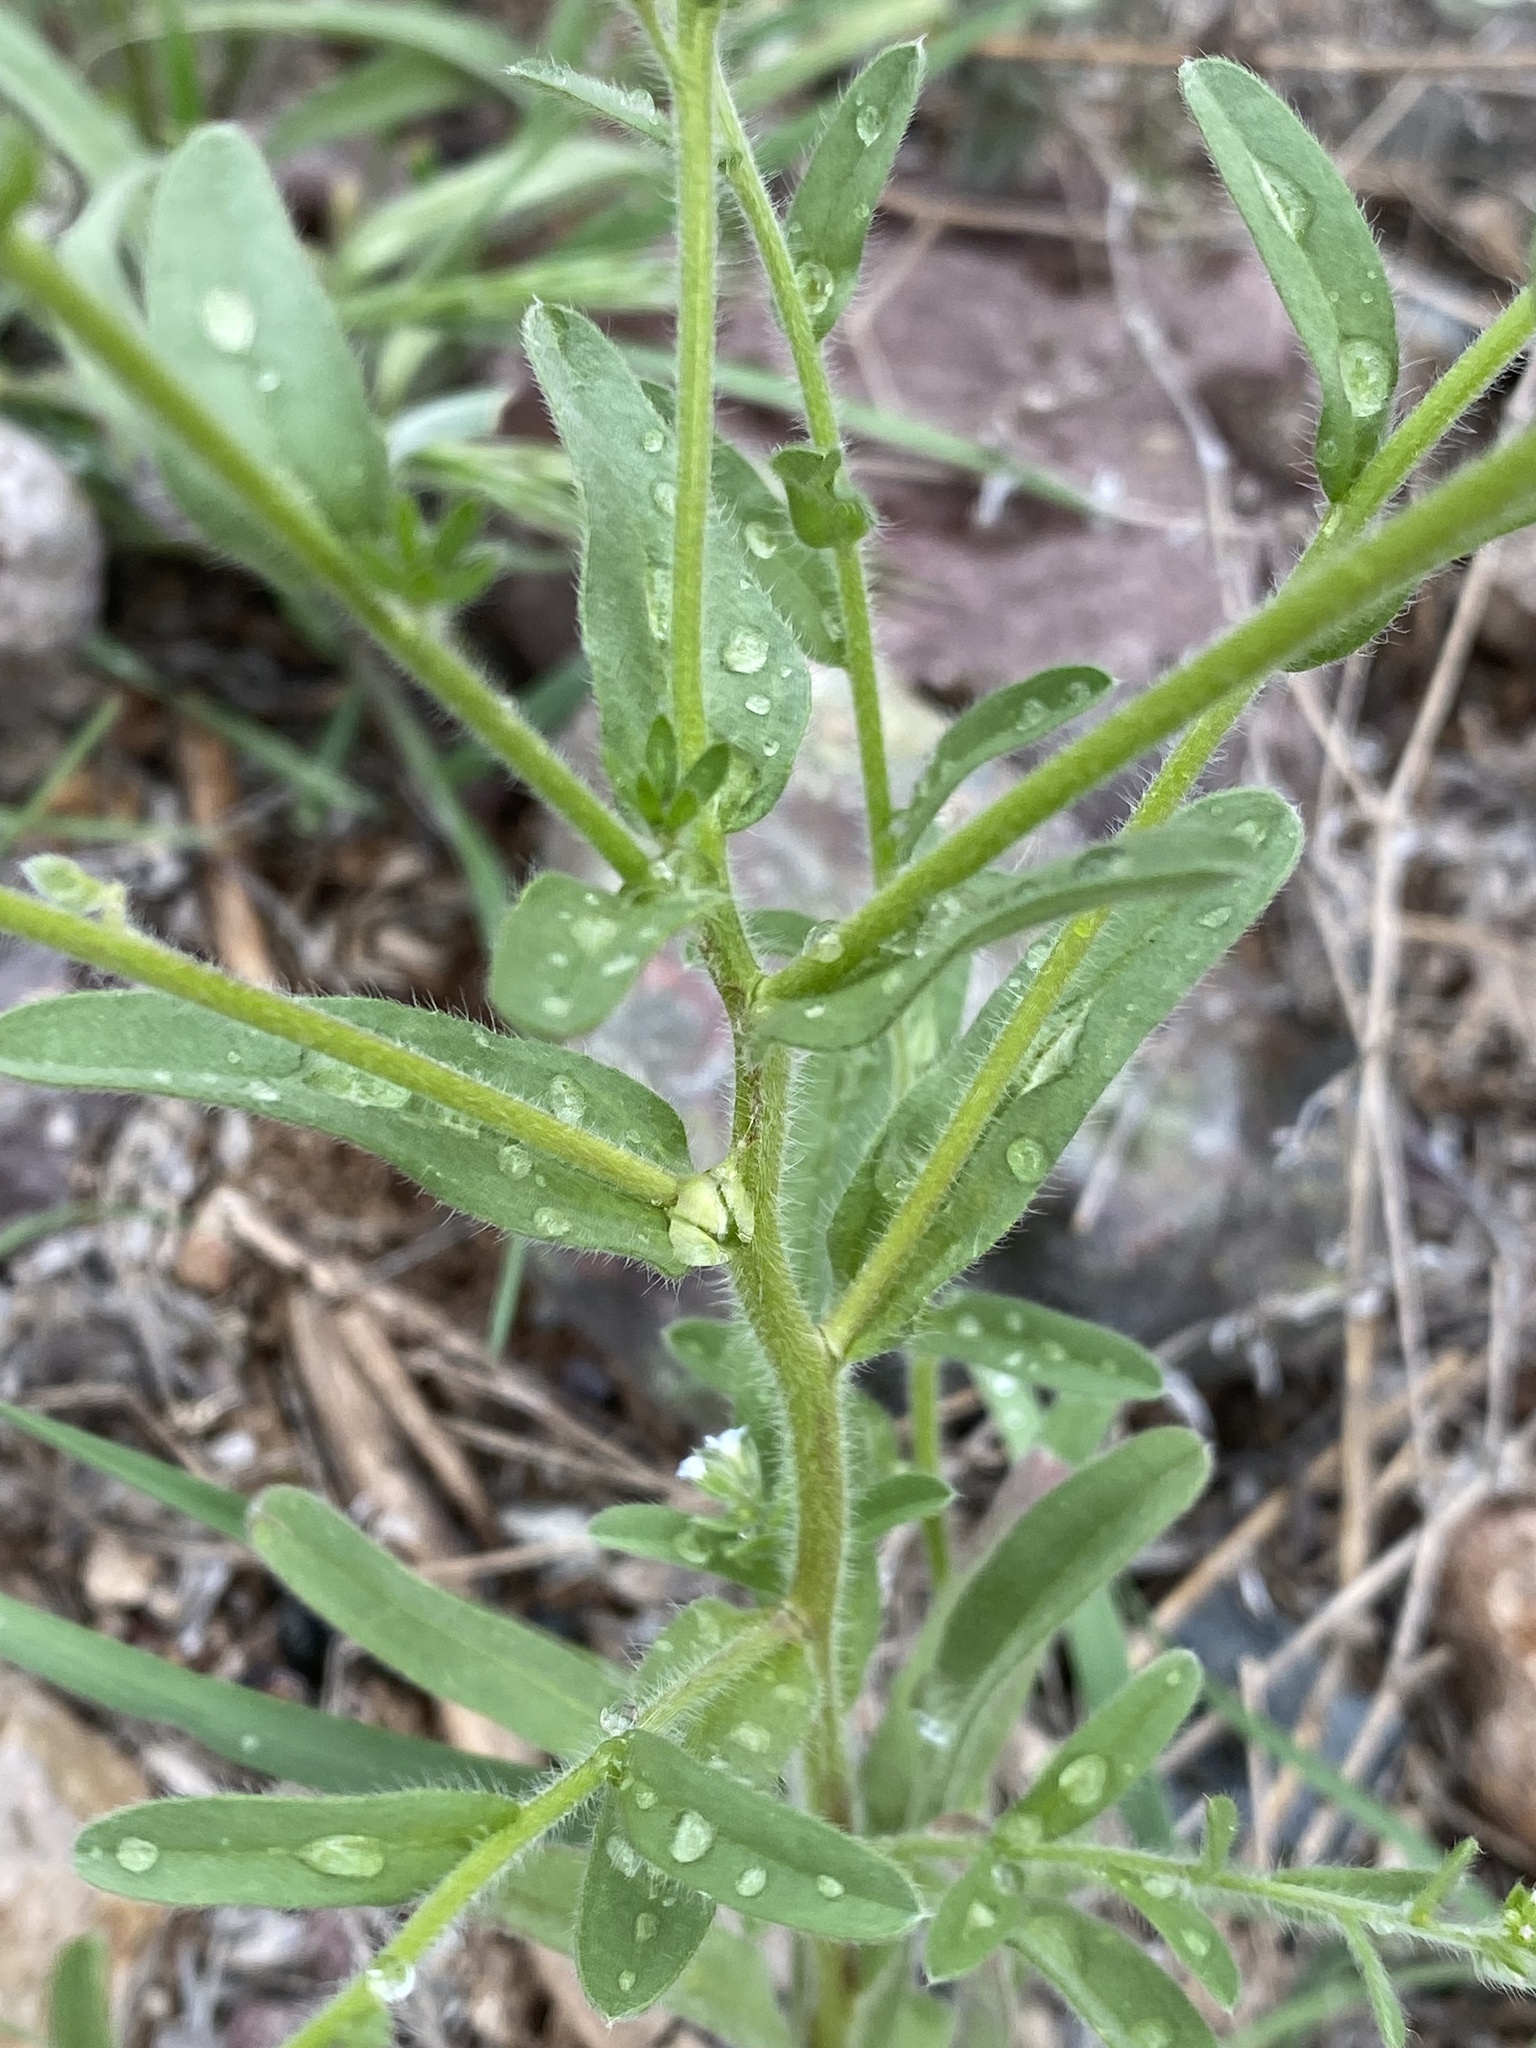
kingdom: Plantae
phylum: Tracheophyta
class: Magnoliopsida
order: Boraginales
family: Boraginaceae
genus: Lappula
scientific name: Lappula occidentalis
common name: Western stickseed
